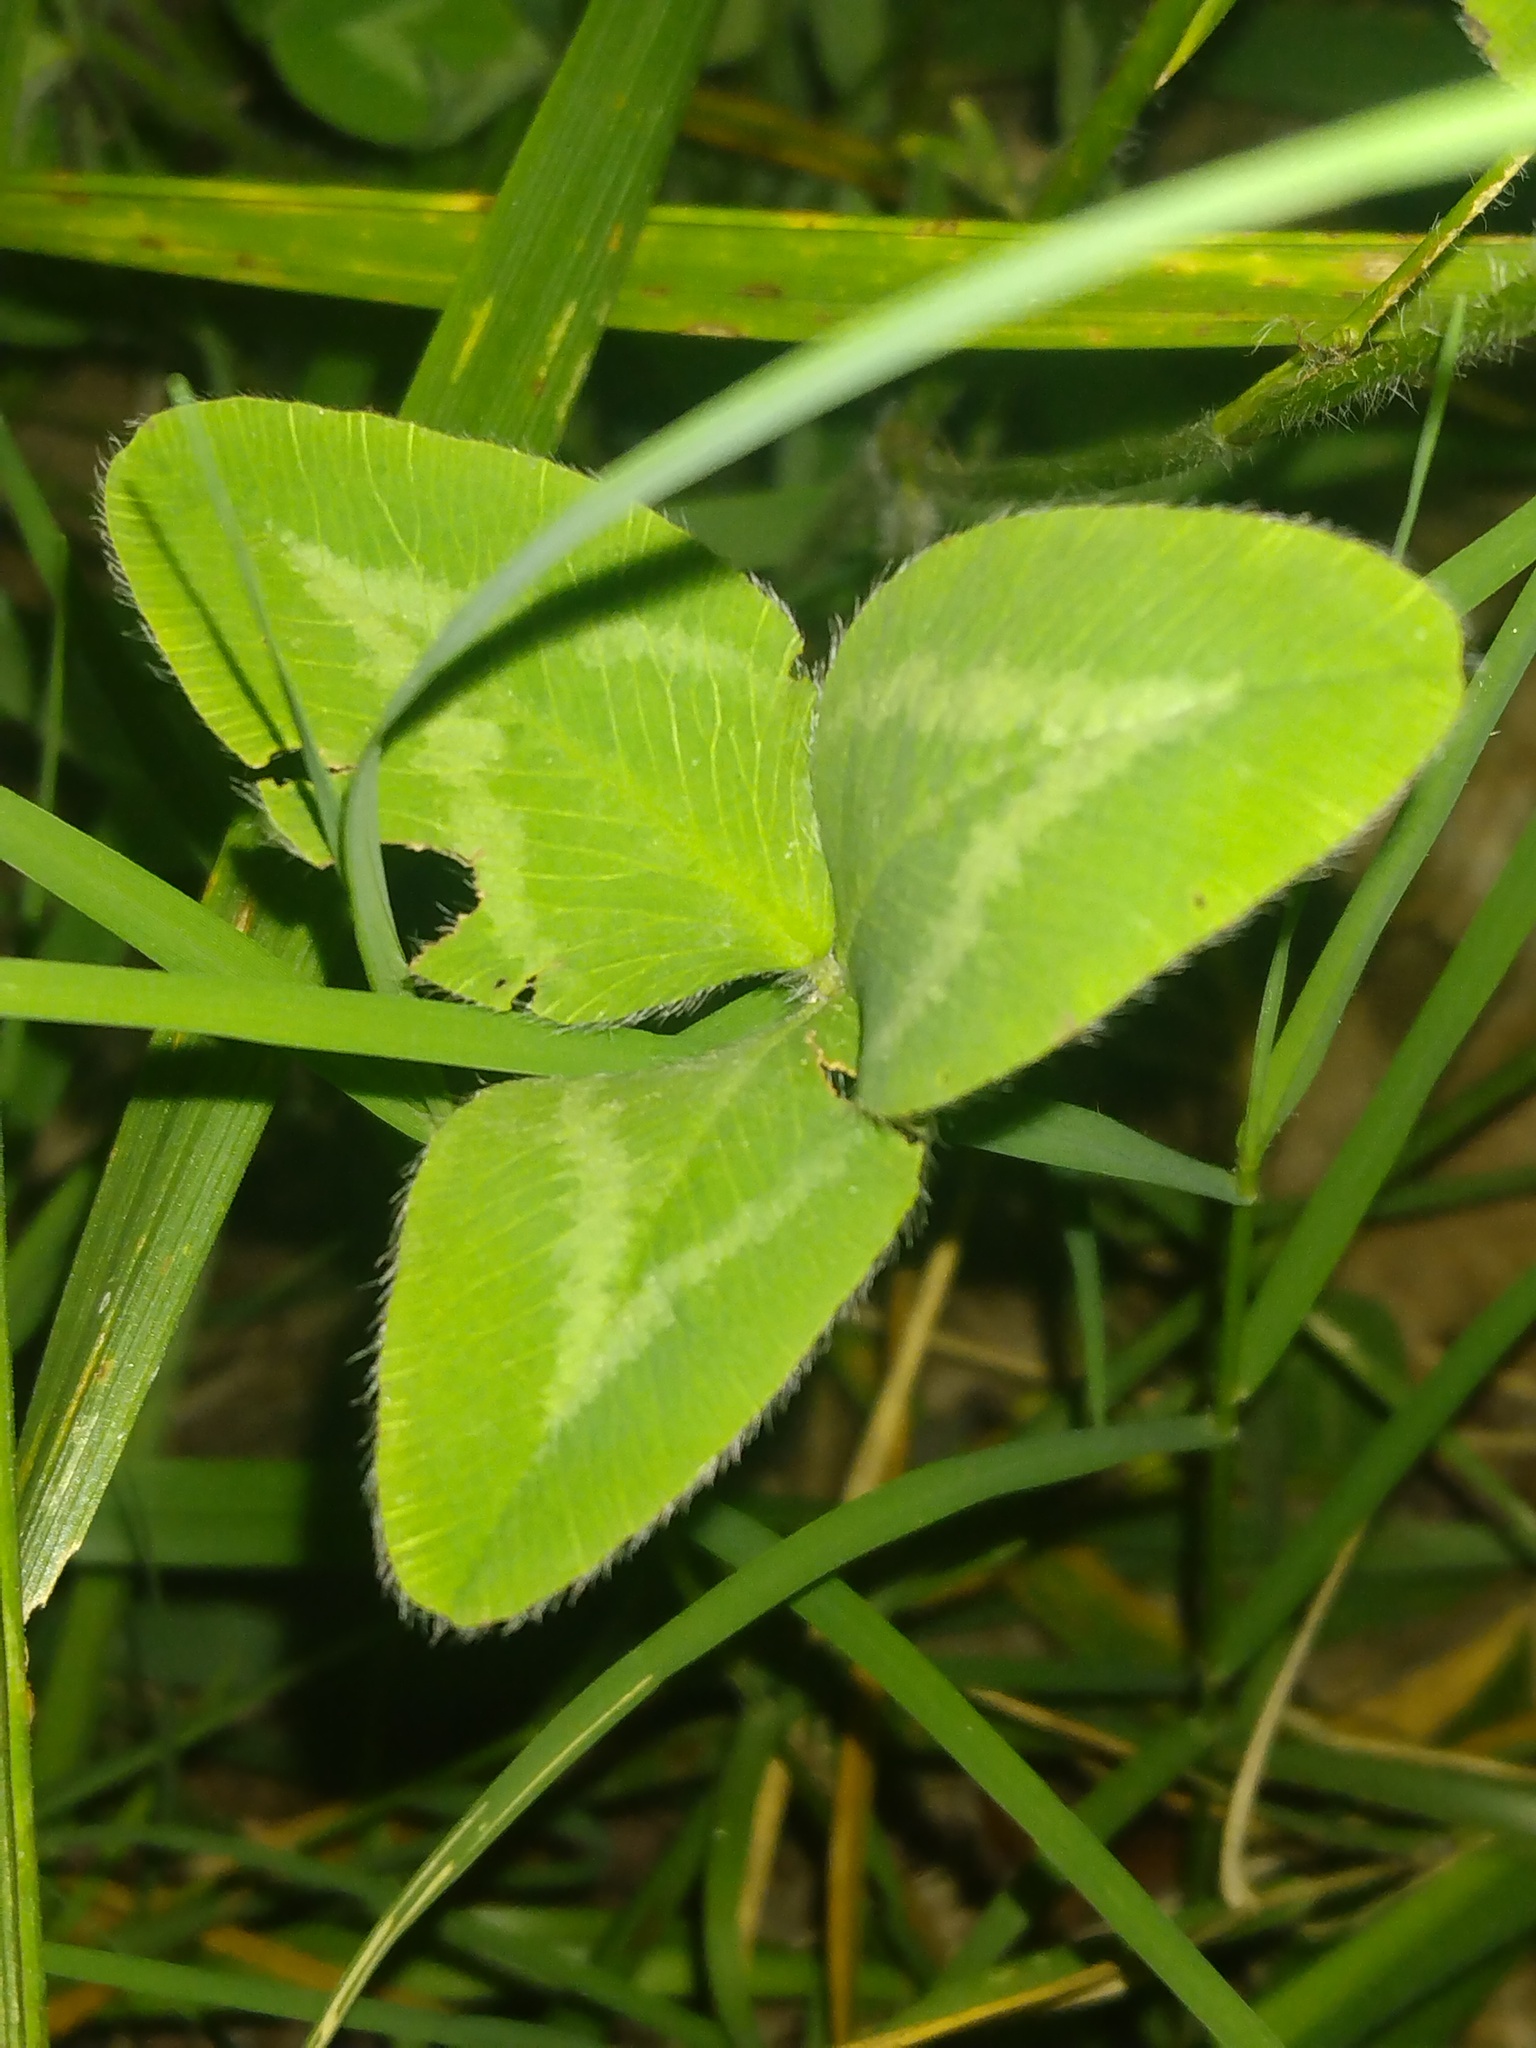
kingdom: Plantae
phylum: Tracheophyta
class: Magnoliopsida
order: Fabales
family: Fabaceae
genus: Trifolium
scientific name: Trifolium pratense
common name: Red clover
